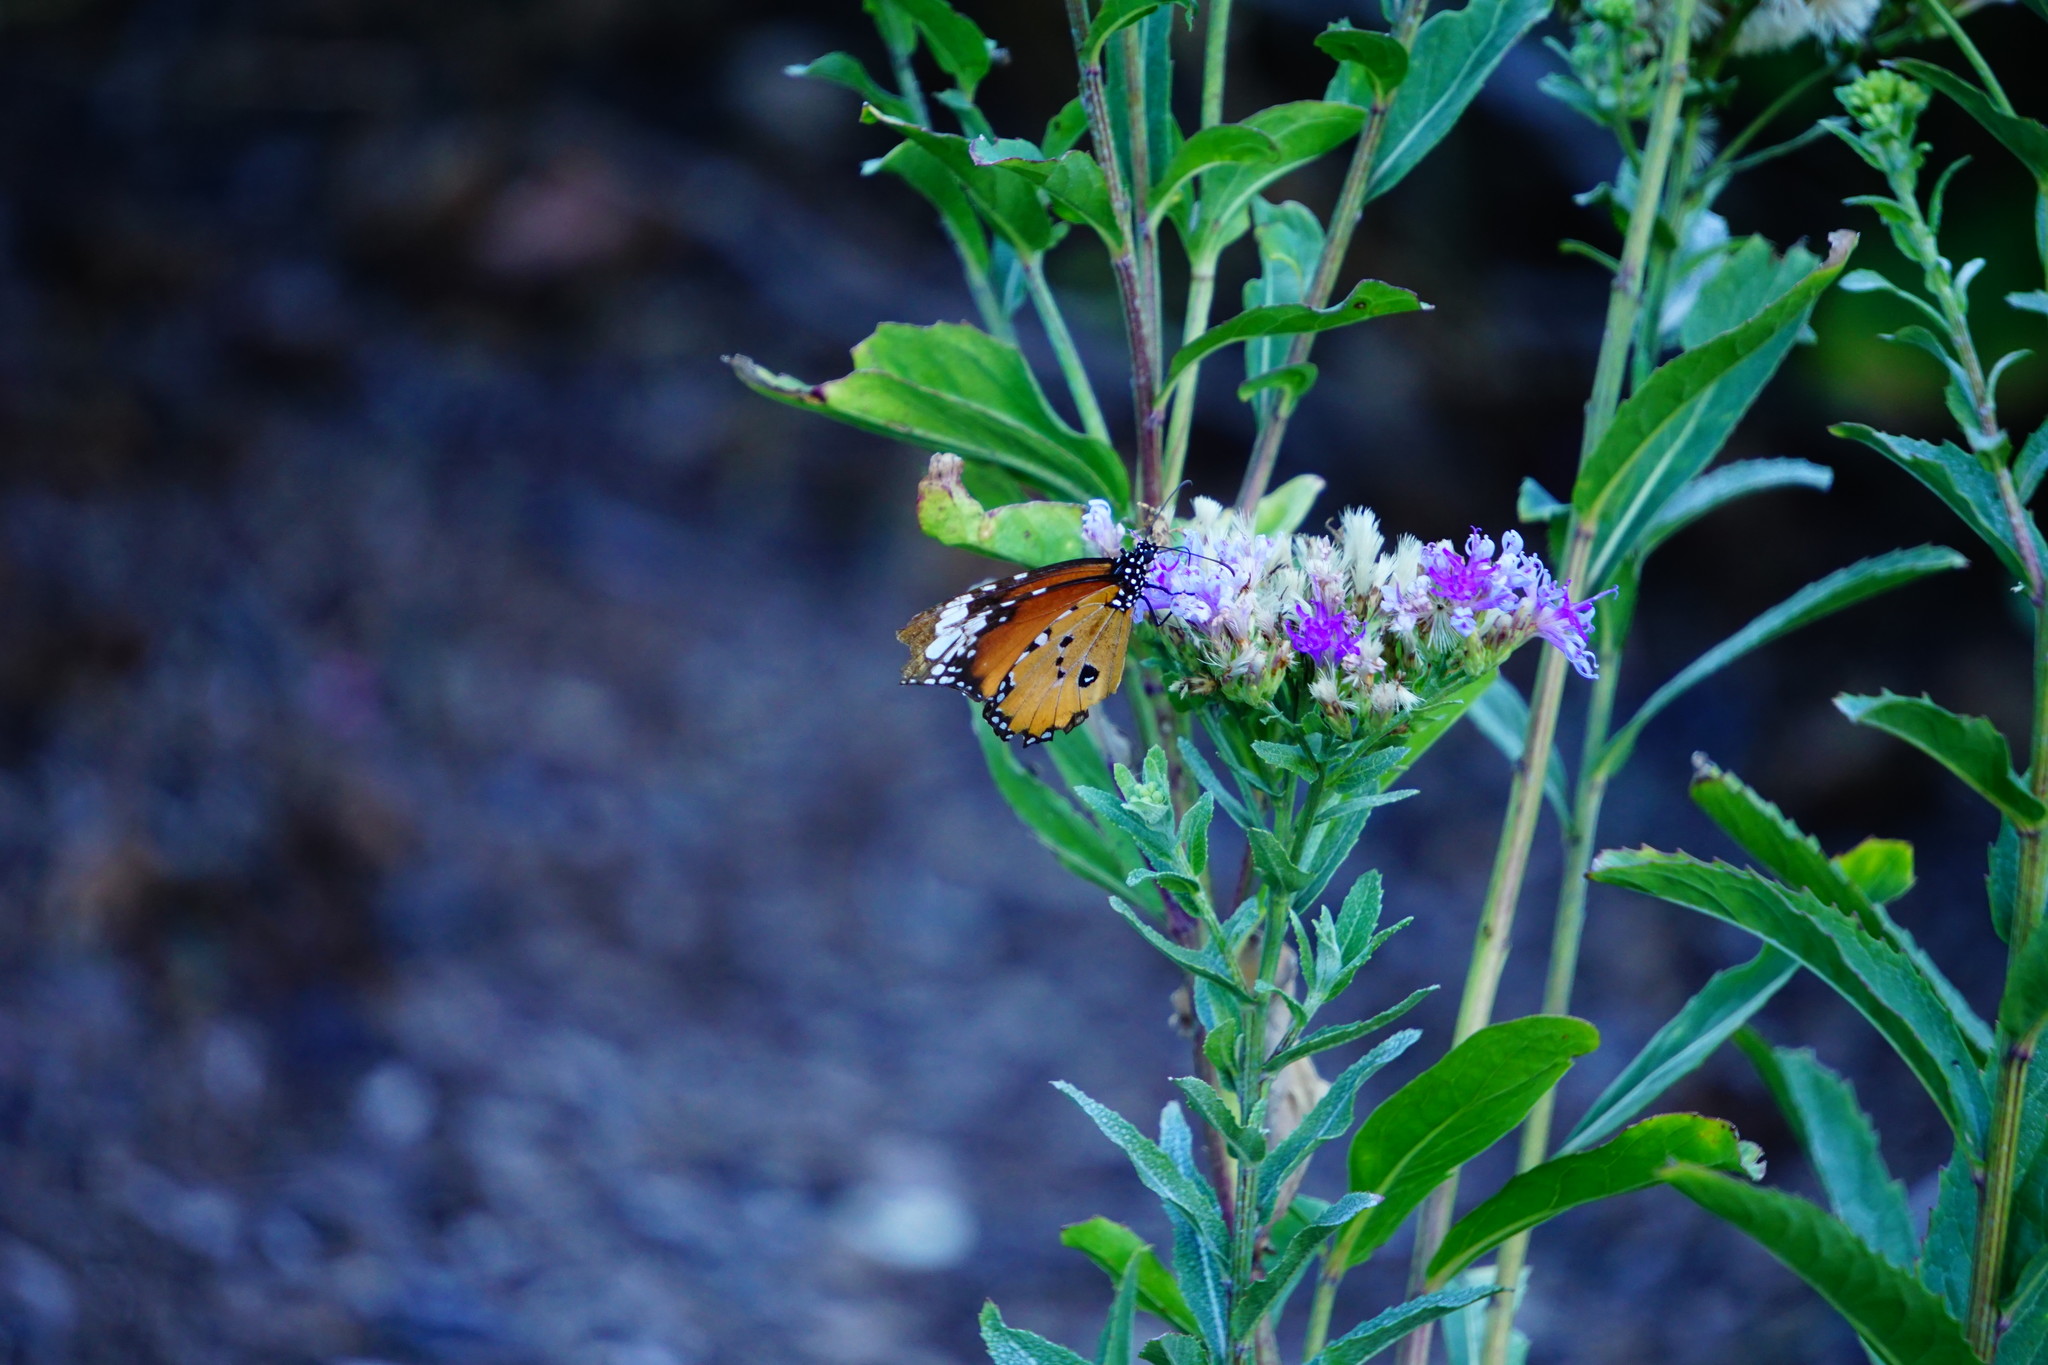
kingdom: Animalia
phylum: Arthropoda
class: Insecta
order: Lepidoptera
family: Nymphalidae
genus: Danaus
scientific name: Danaus chrysippus
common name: Plain tiger
